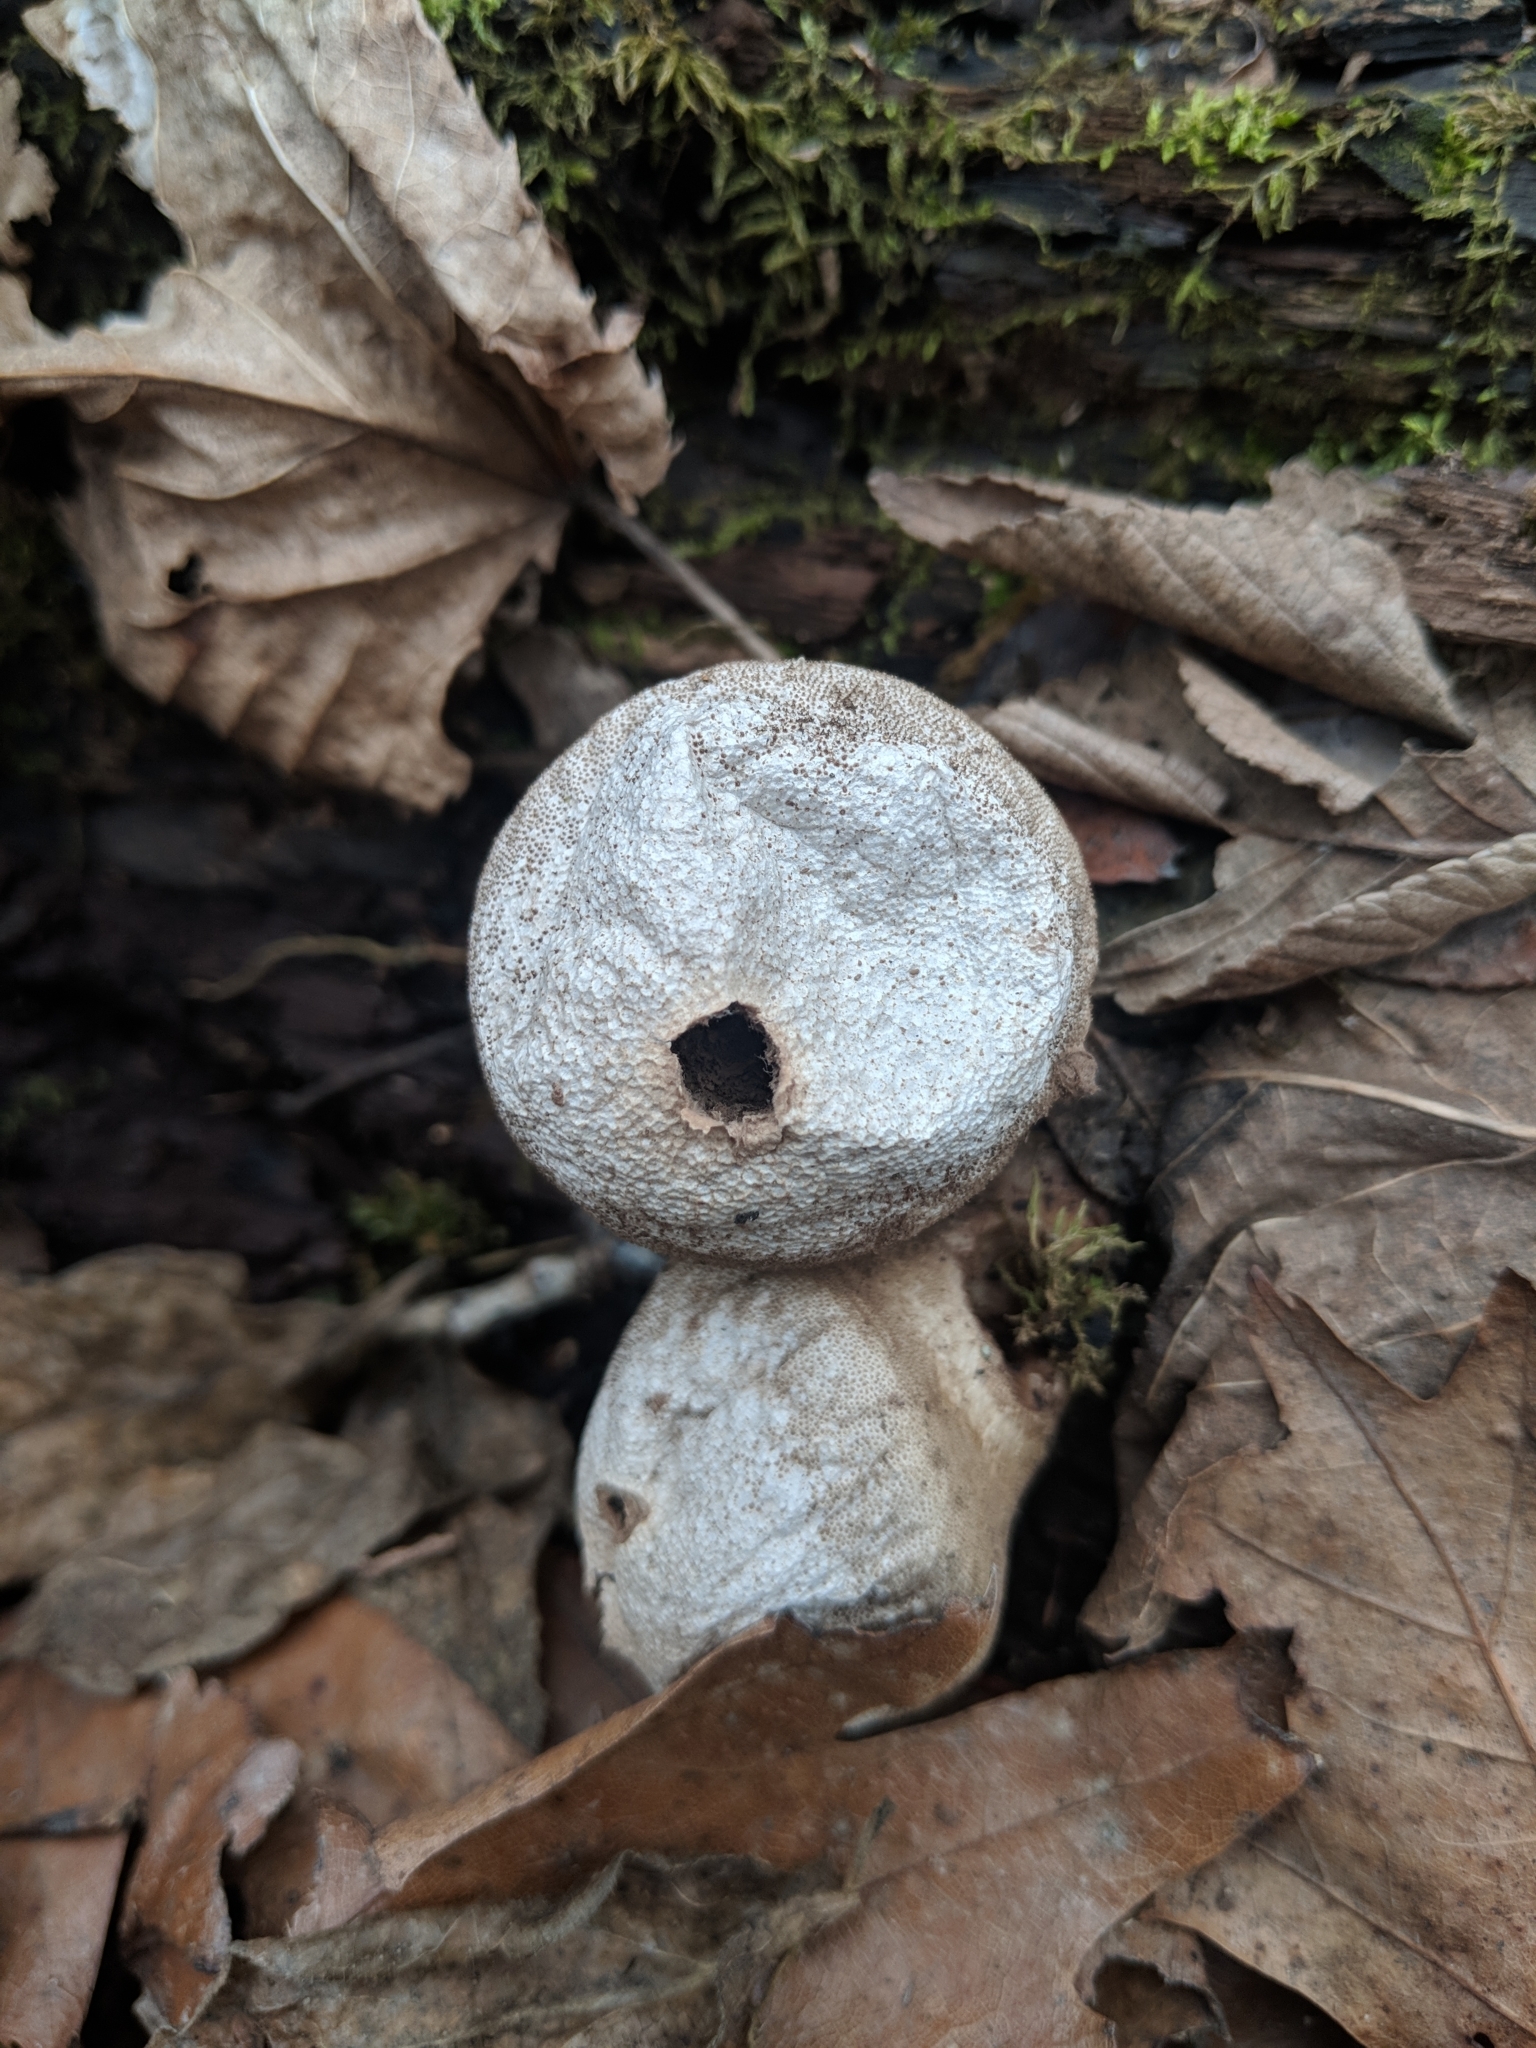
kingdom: Fungi
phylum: Basidiomycota
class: Agaricomycetes
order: Agaricales
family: Lycoperdaceae
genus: Apioperdon
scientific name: Apioperdon pyriforme
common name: Pear-shaped puffball
